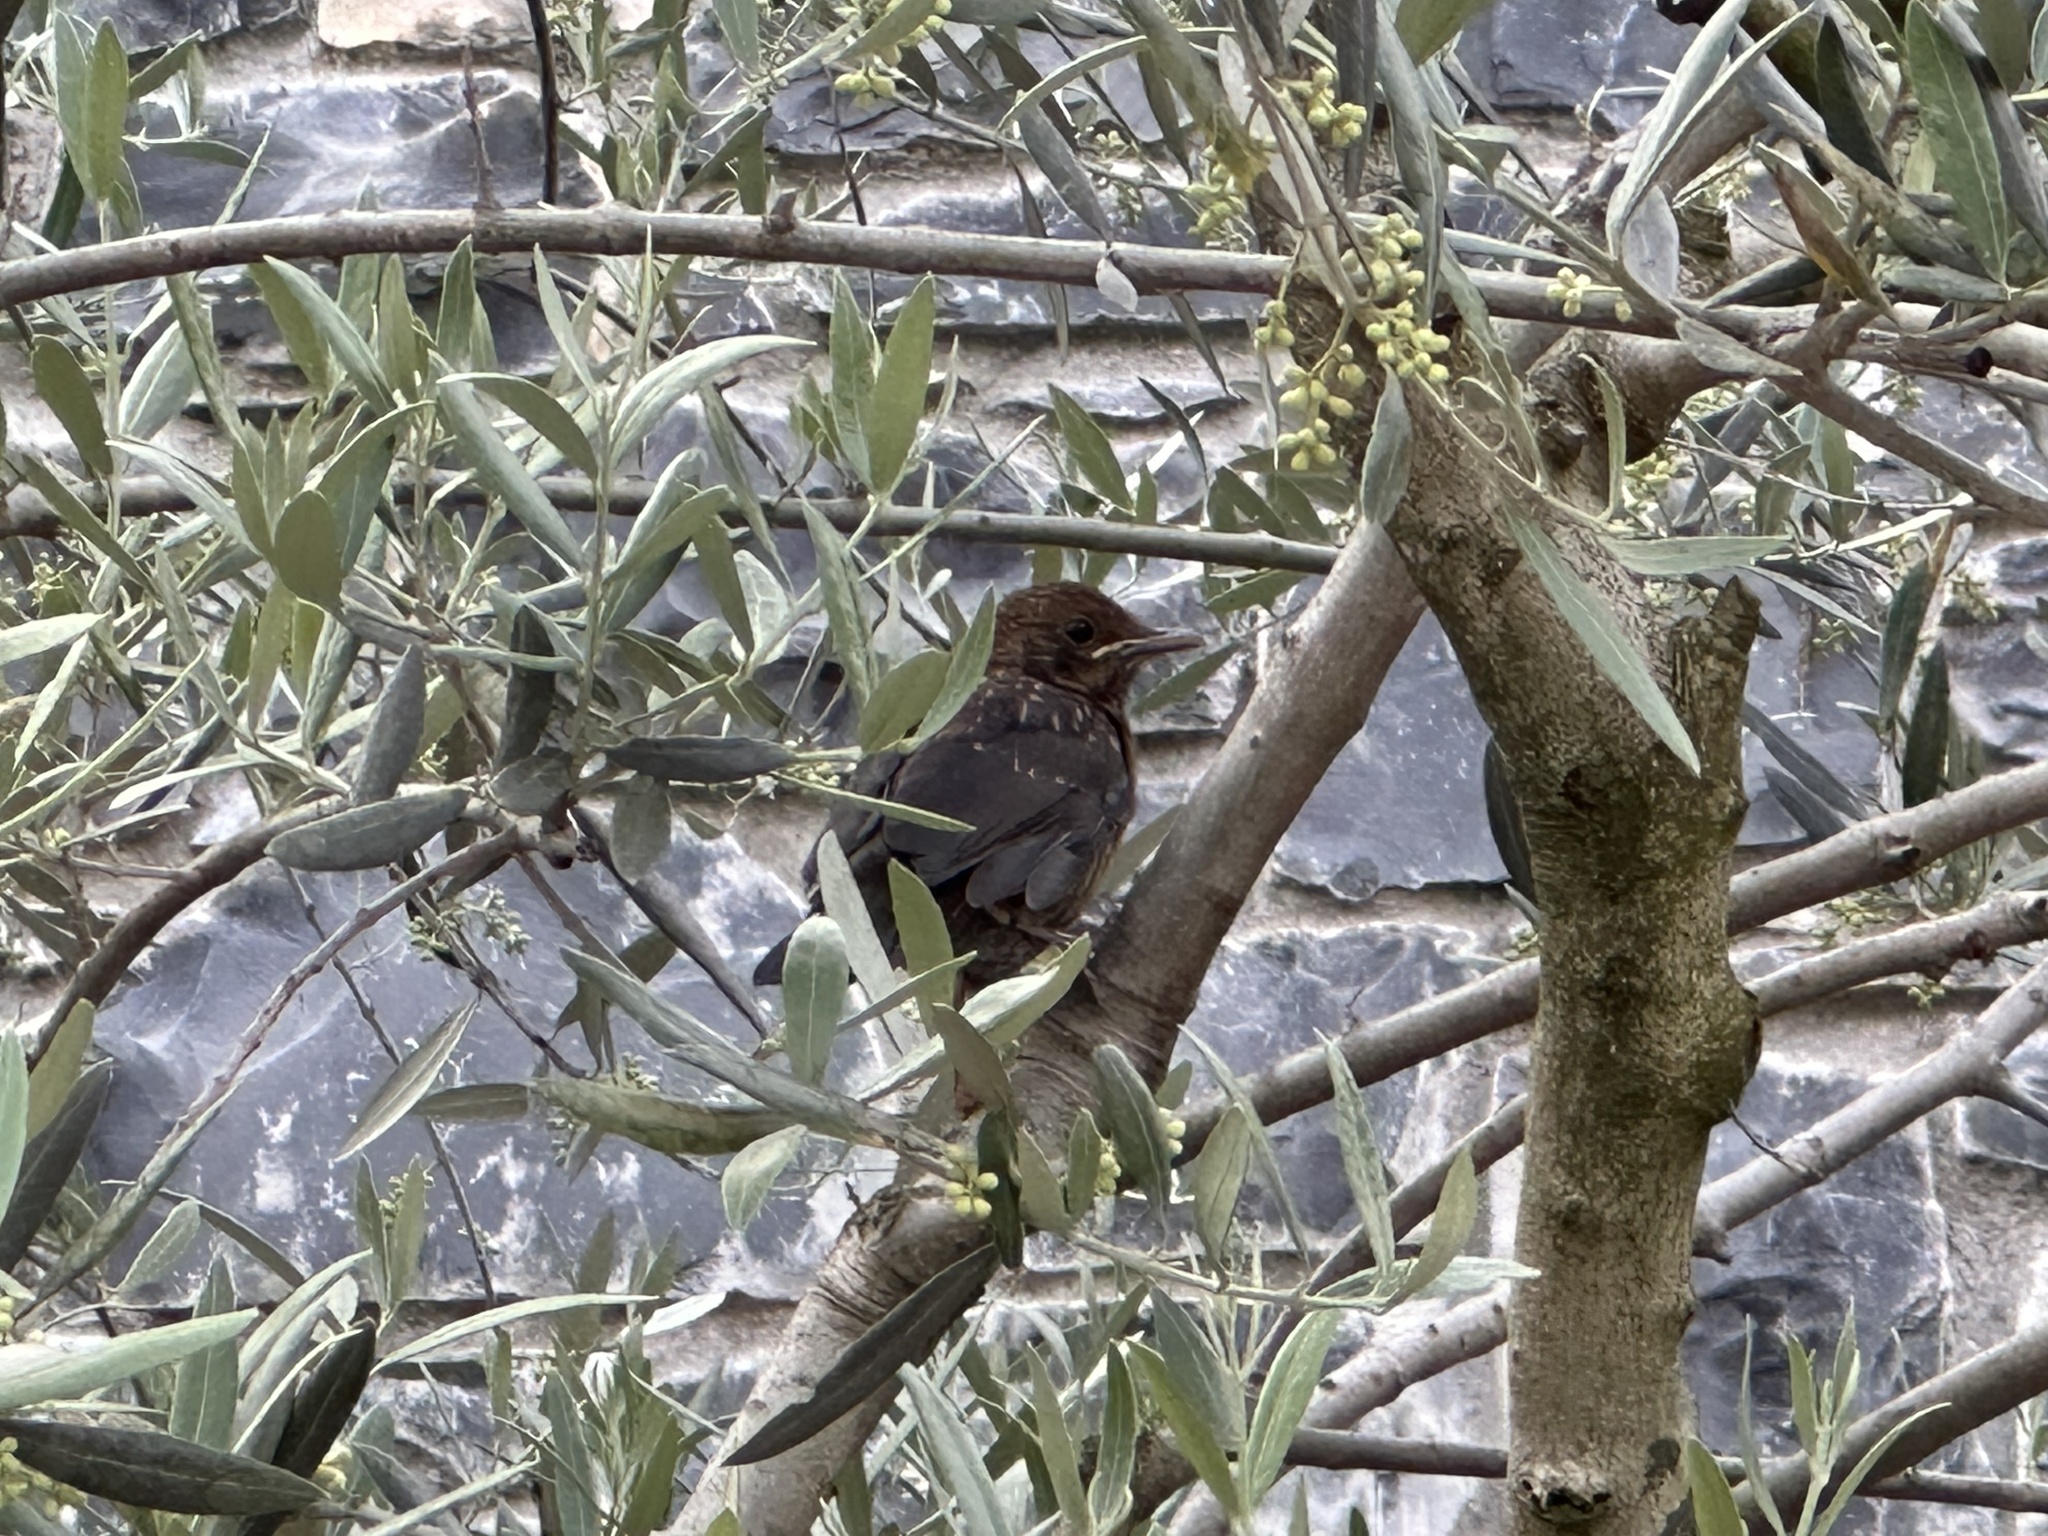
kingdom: Animalia
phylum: Chordata
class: Aves
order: Passeriformes
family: Turdidae
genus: Turdus
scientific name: Turdus merula
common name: Common blackbird
